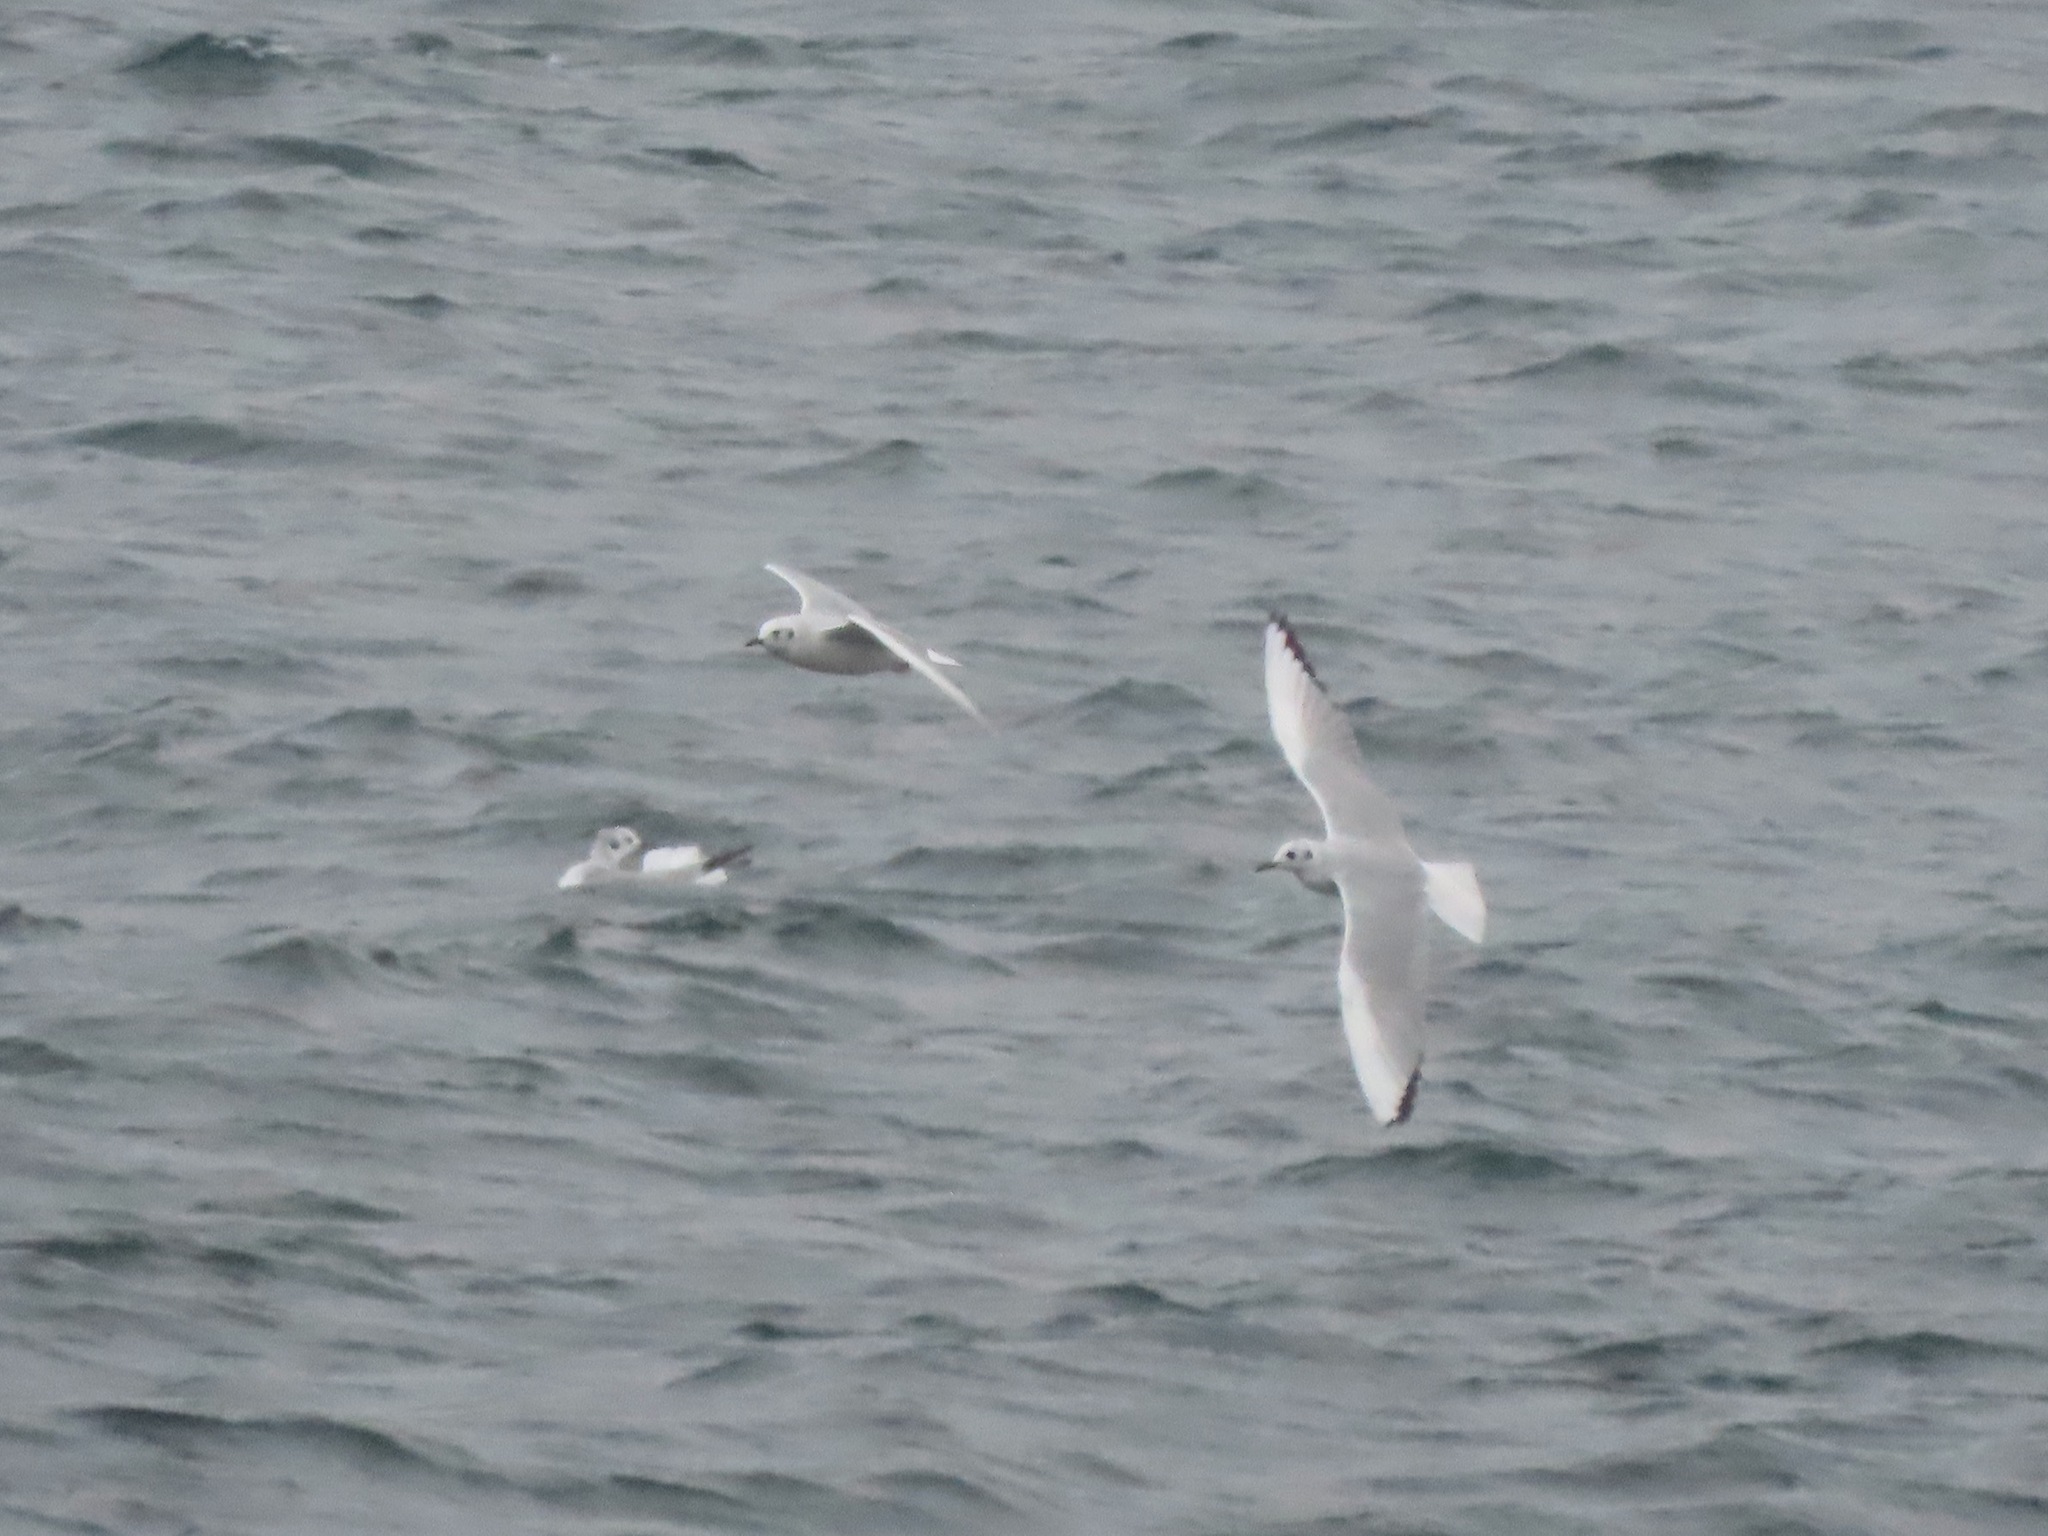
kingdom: Animalia
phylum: Chordata
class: Aves
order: Charadriiformes
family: Laridae
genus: Chroicocephalus
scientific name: Chroicocephalus philadelphia
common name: Bonaparte's gull
